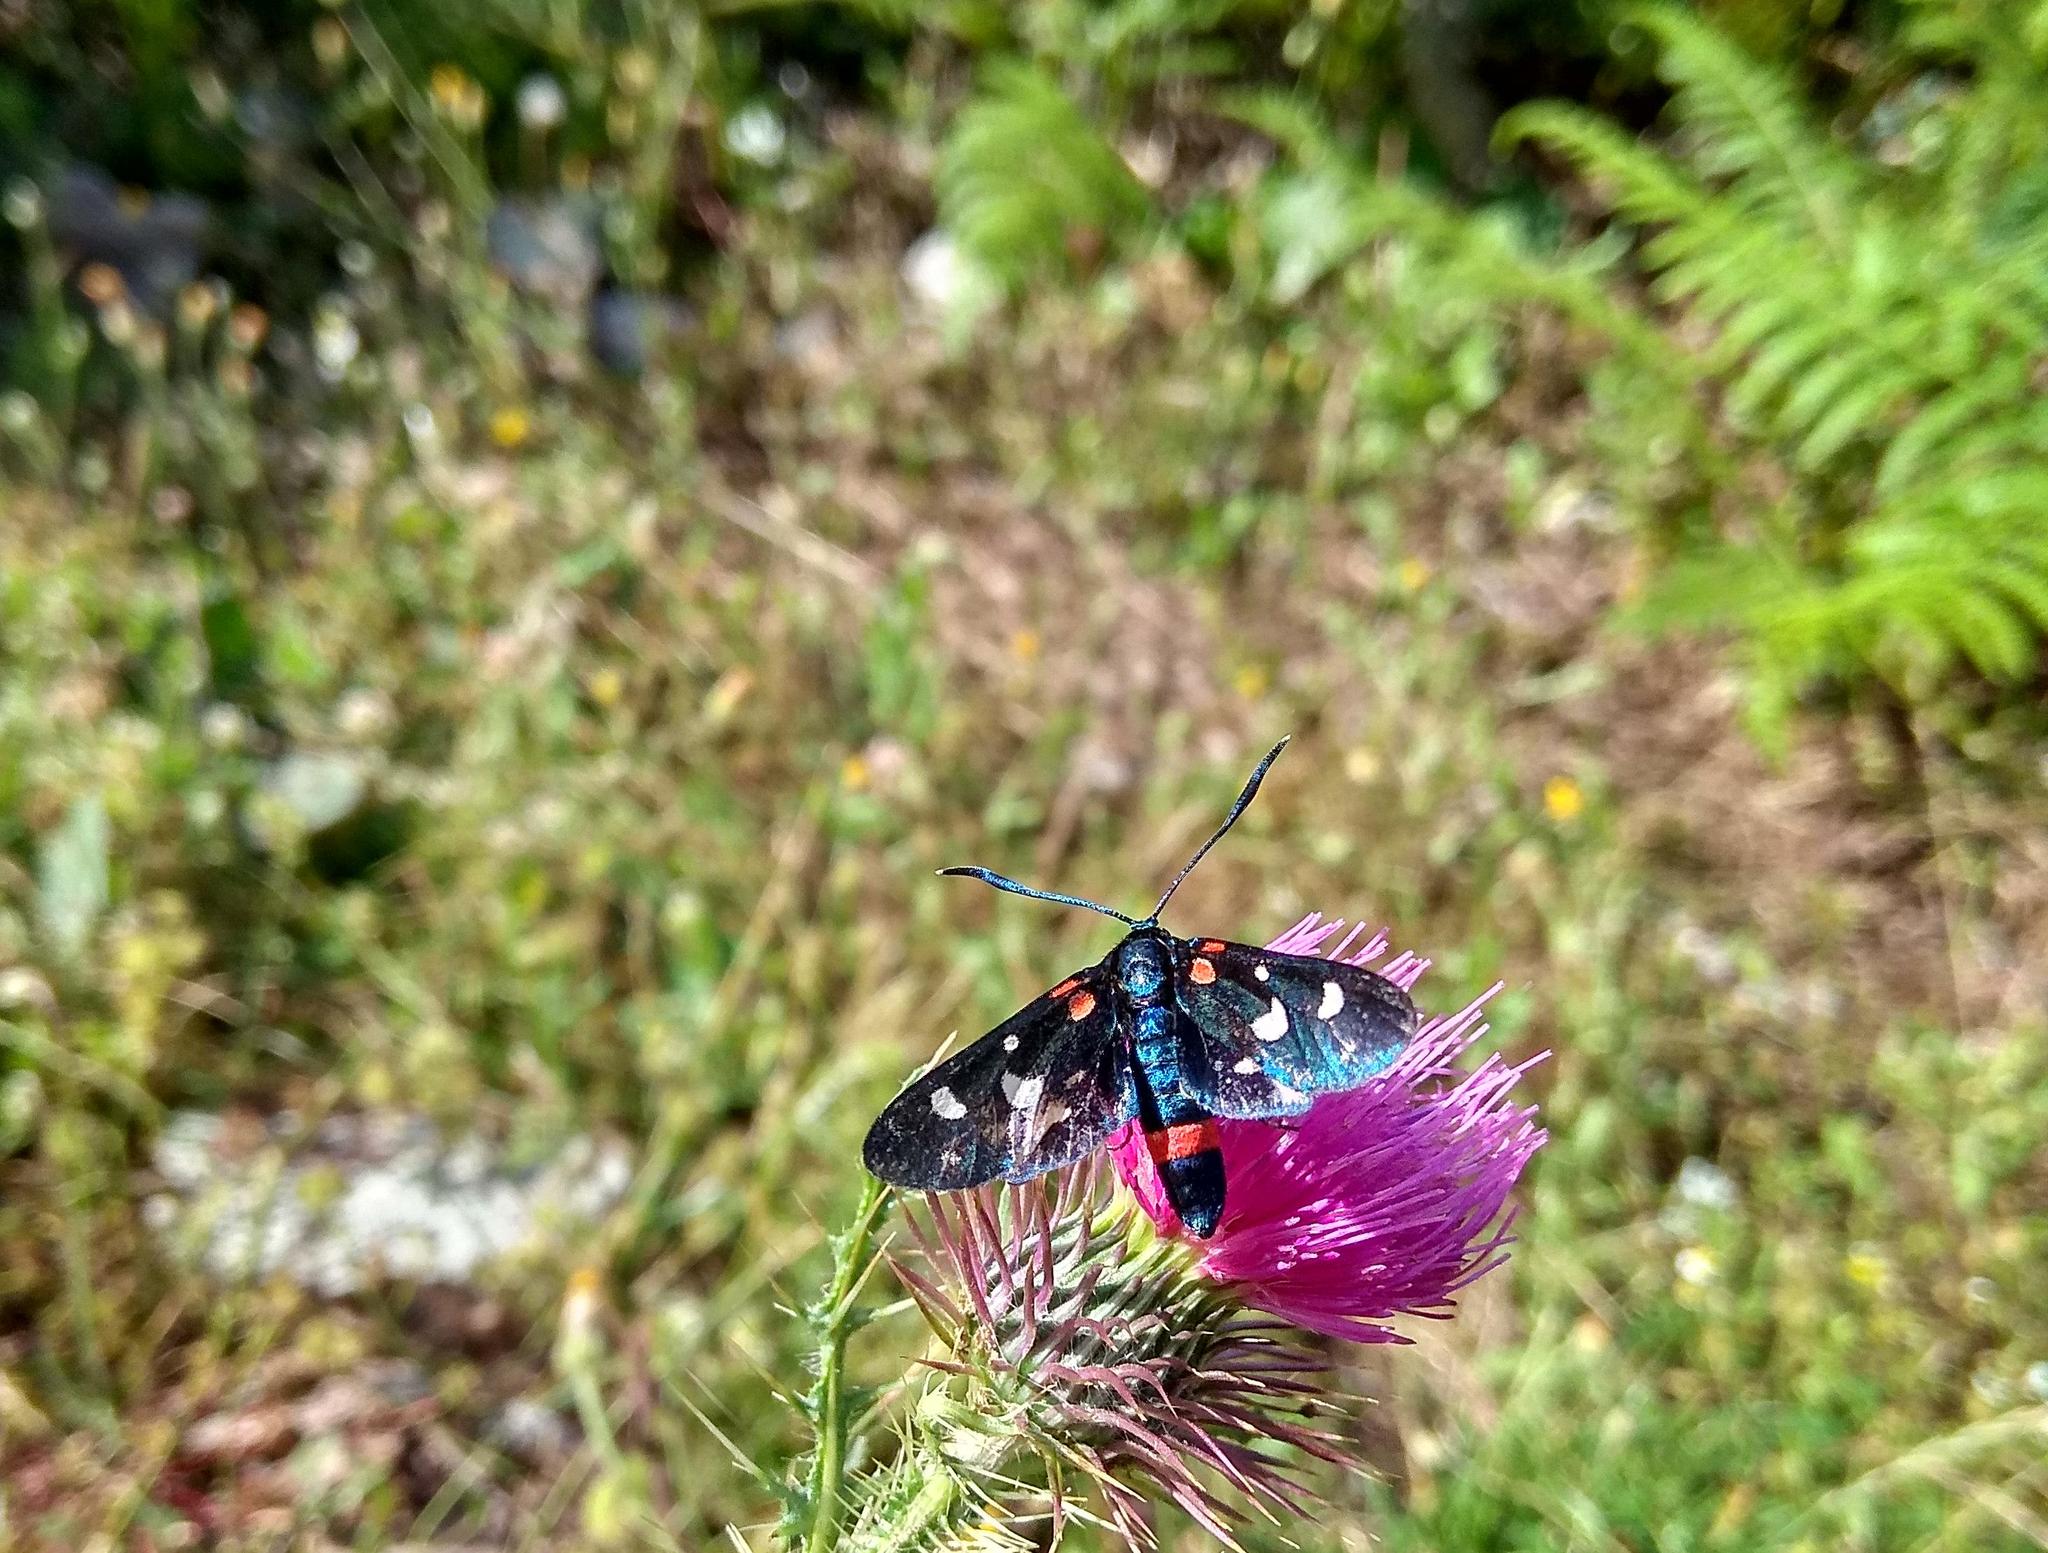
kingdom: Animalia
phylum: Arthropoda
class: Insecta
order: Lepidoptera
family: Zygaenidae
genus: Zygaena
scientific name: Zygaena ephialtes
